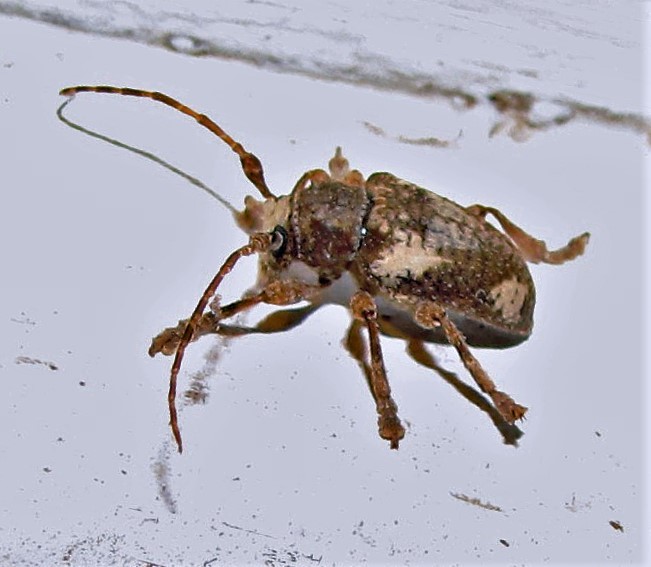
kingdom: Animalia
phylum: Arthropoda
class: Insecta
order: Coleoptera
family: Cerambycidae
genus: Aerenea
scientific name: Aerenea quadriplagiata
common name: Amaranth stem borer
